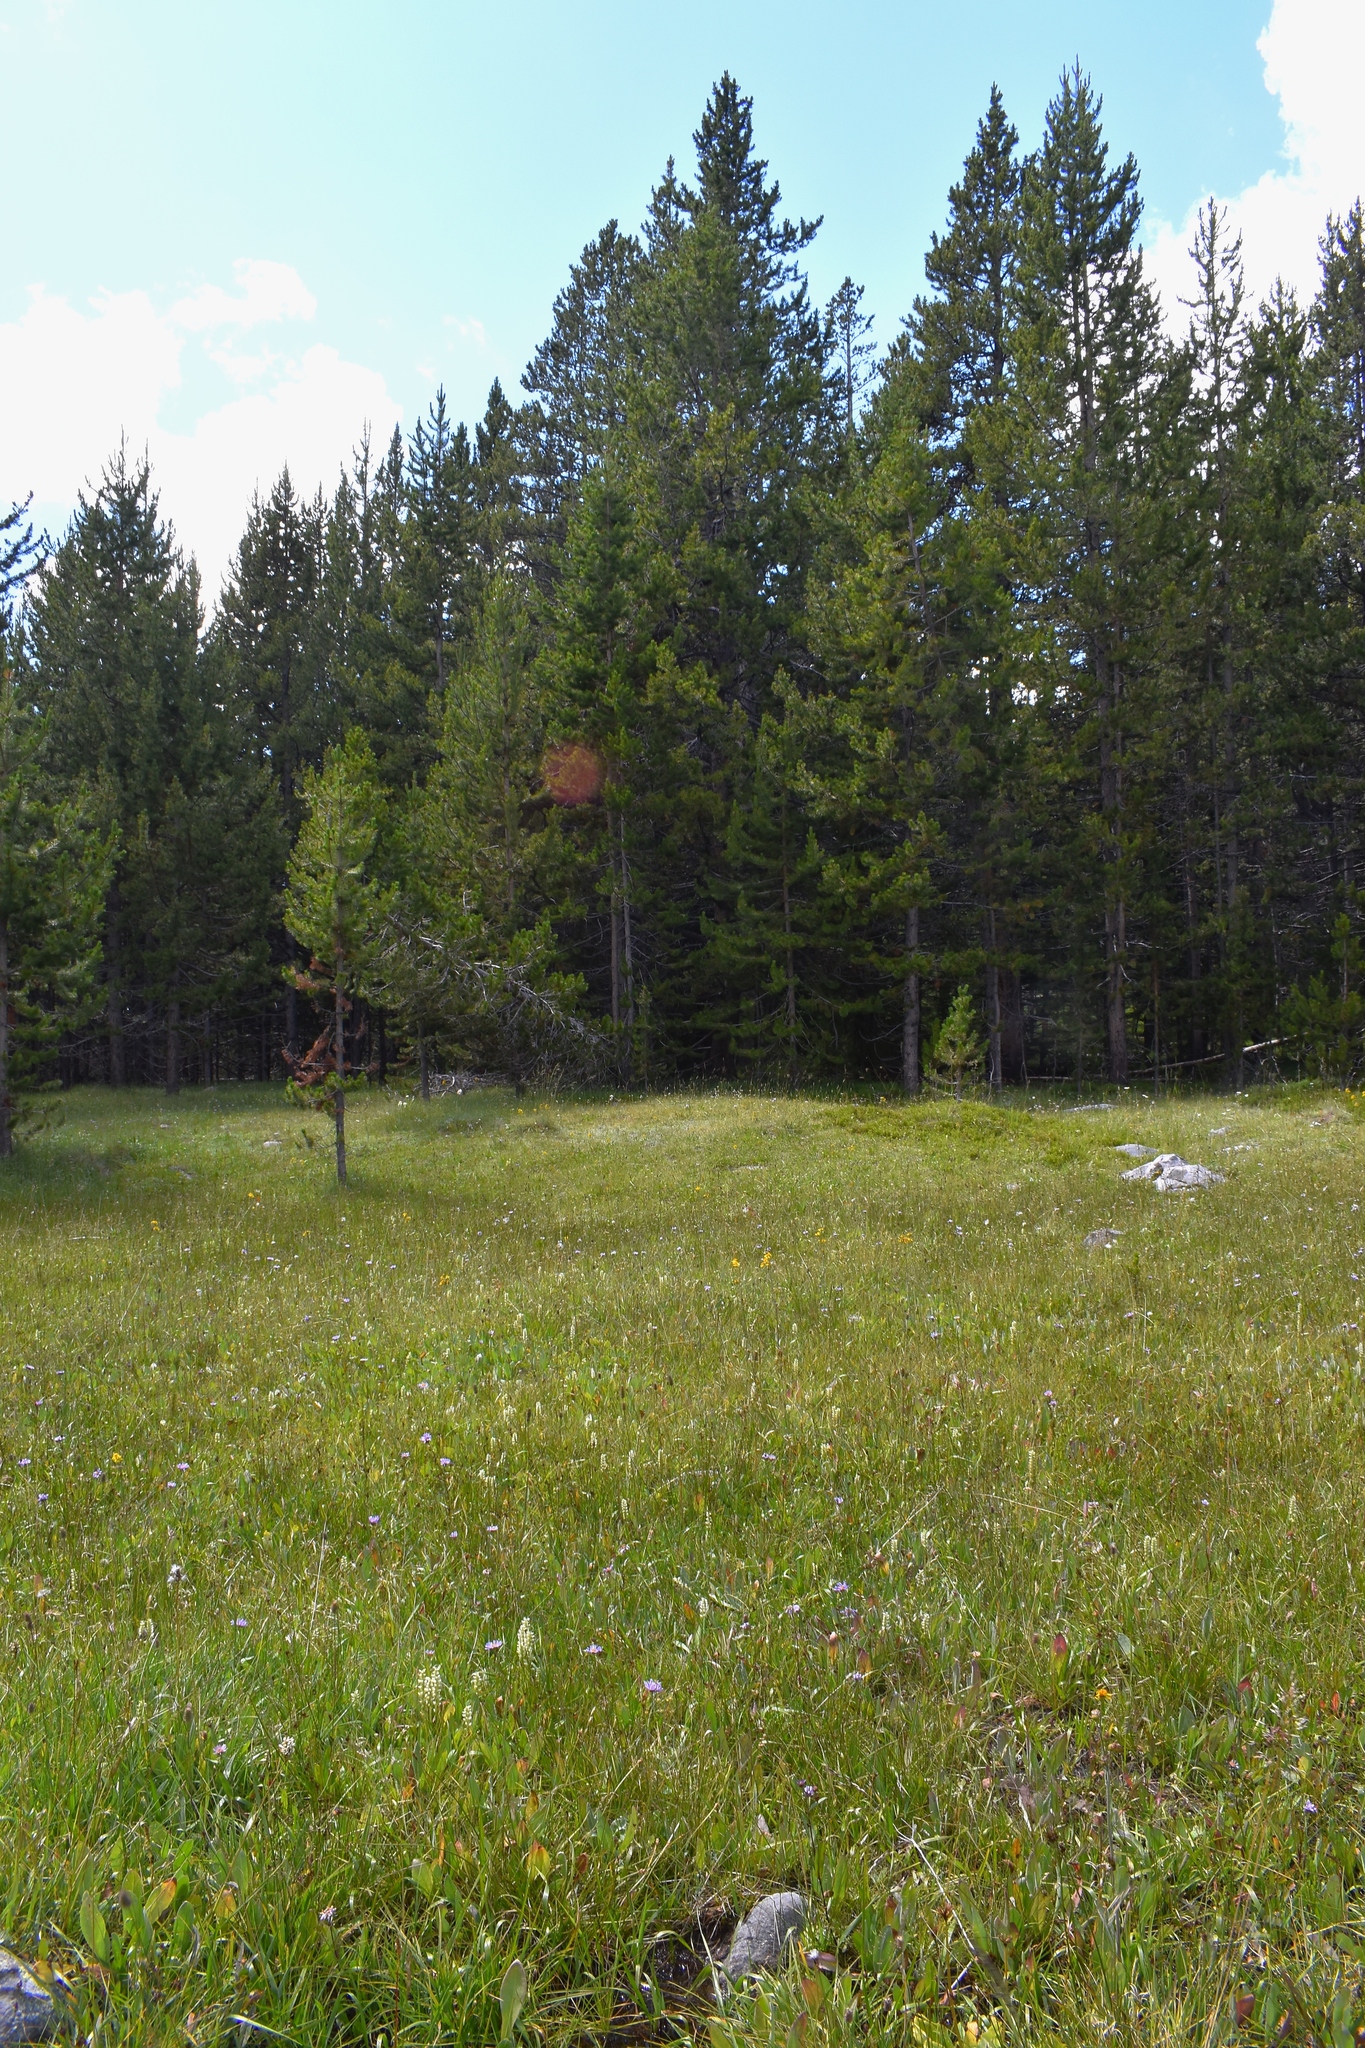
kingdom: Plantae
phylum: Tracheophyta
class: Liliopsida
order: Asparagales
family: Orchidaceae
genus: Spiranthes
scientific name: Spiranthes romanzoffiana
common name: Irish lady's-tresses
